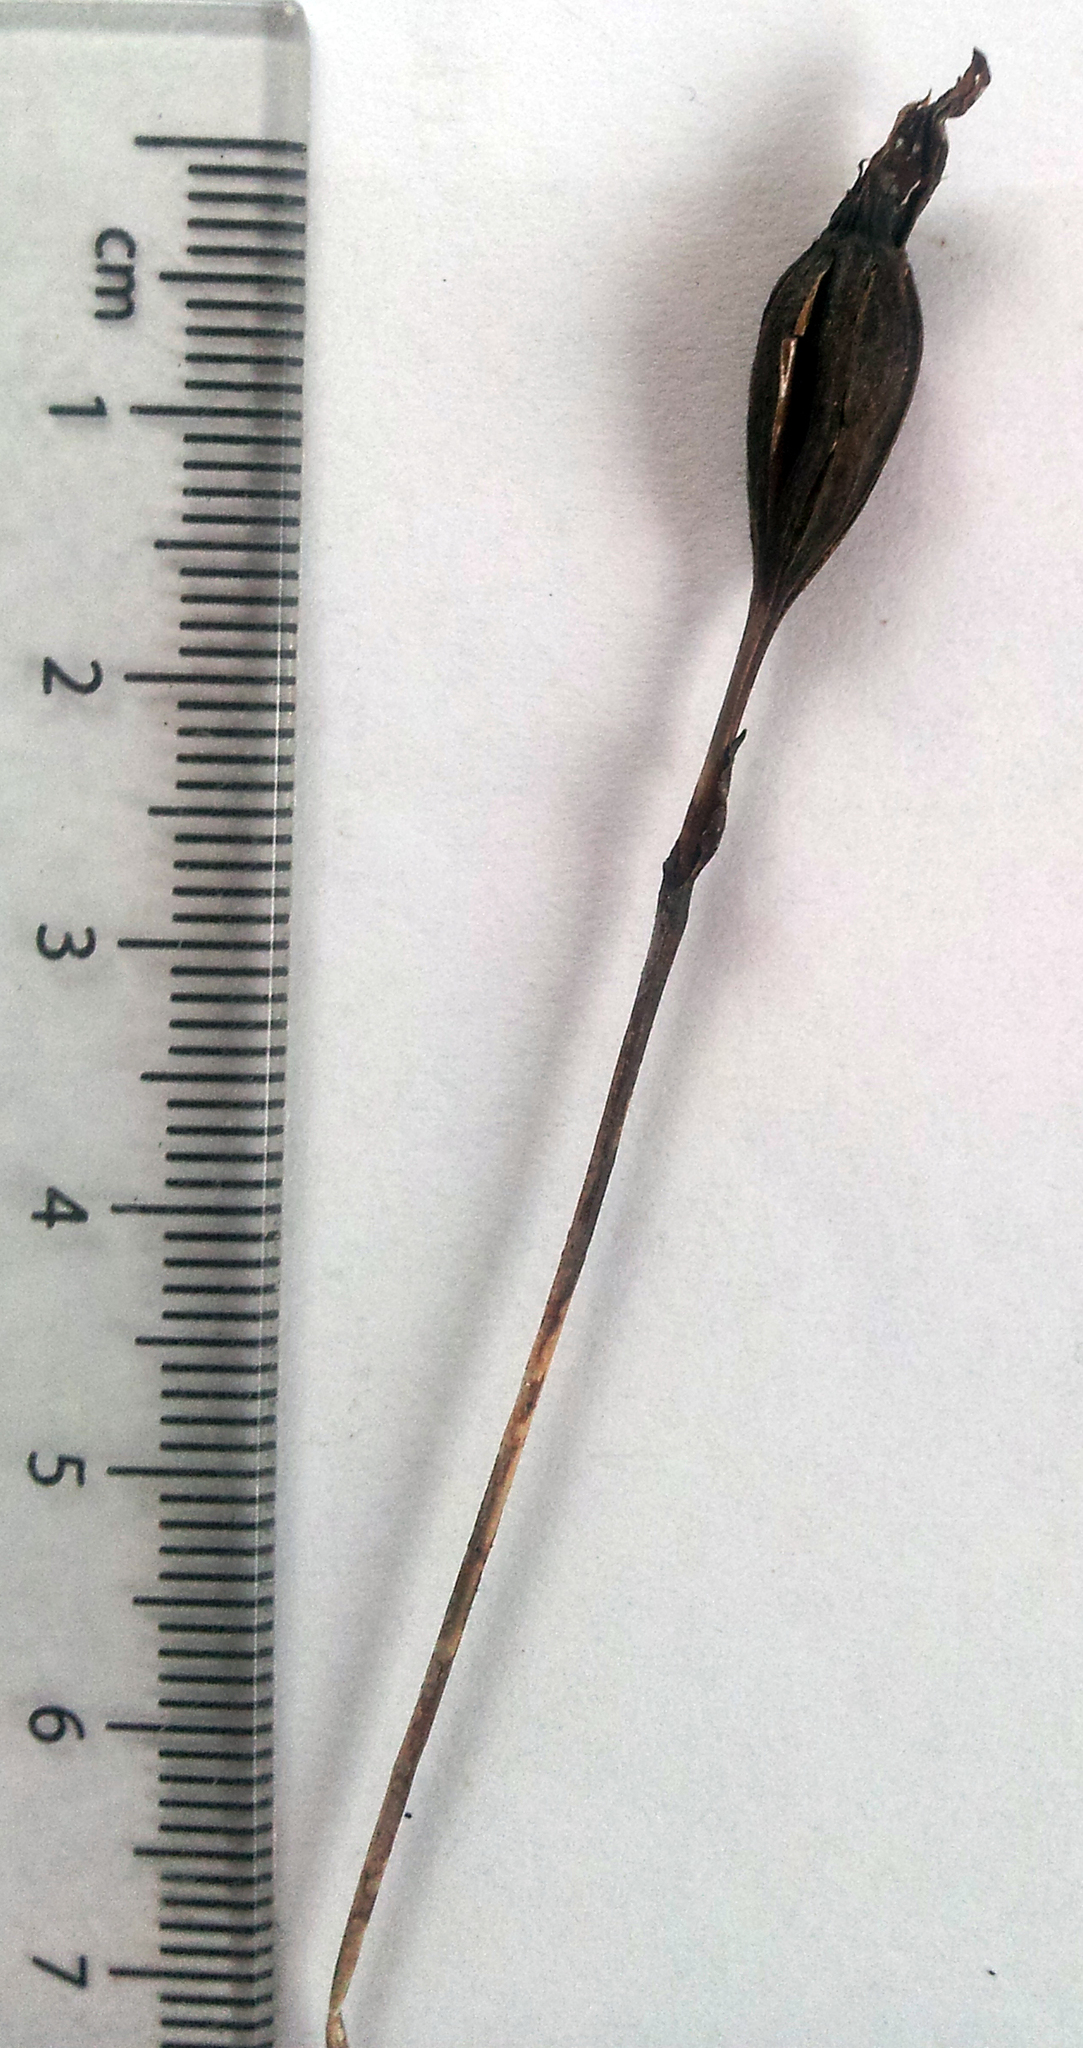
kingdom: Plantae
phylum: Tracheophyta
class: Liliopsida
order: Asparagales
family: Orchidaceae
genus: Thelymitra
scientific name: Thelymitra matthewsii
